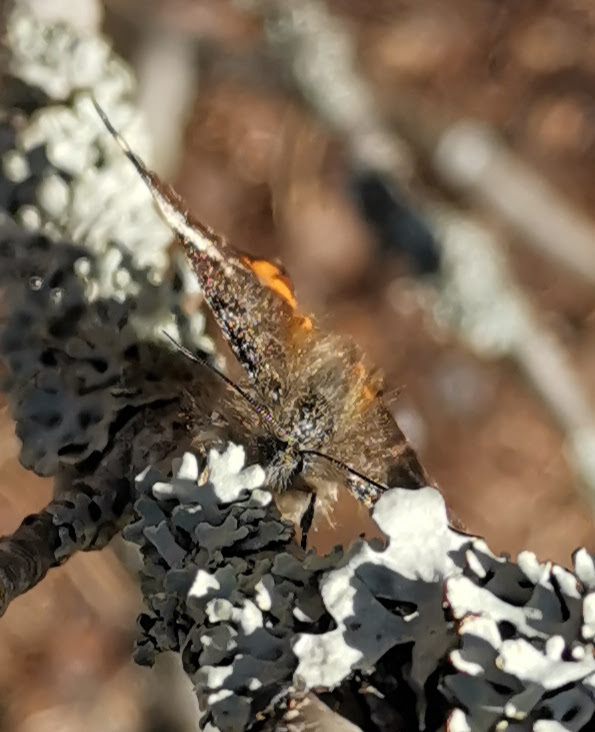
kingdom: Animalia
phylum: Arthropoda
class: Insecta
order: Lepidoptera
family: Geometridae
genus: Archiearis
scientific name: Archiearis parthenias
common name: Orange underwing
